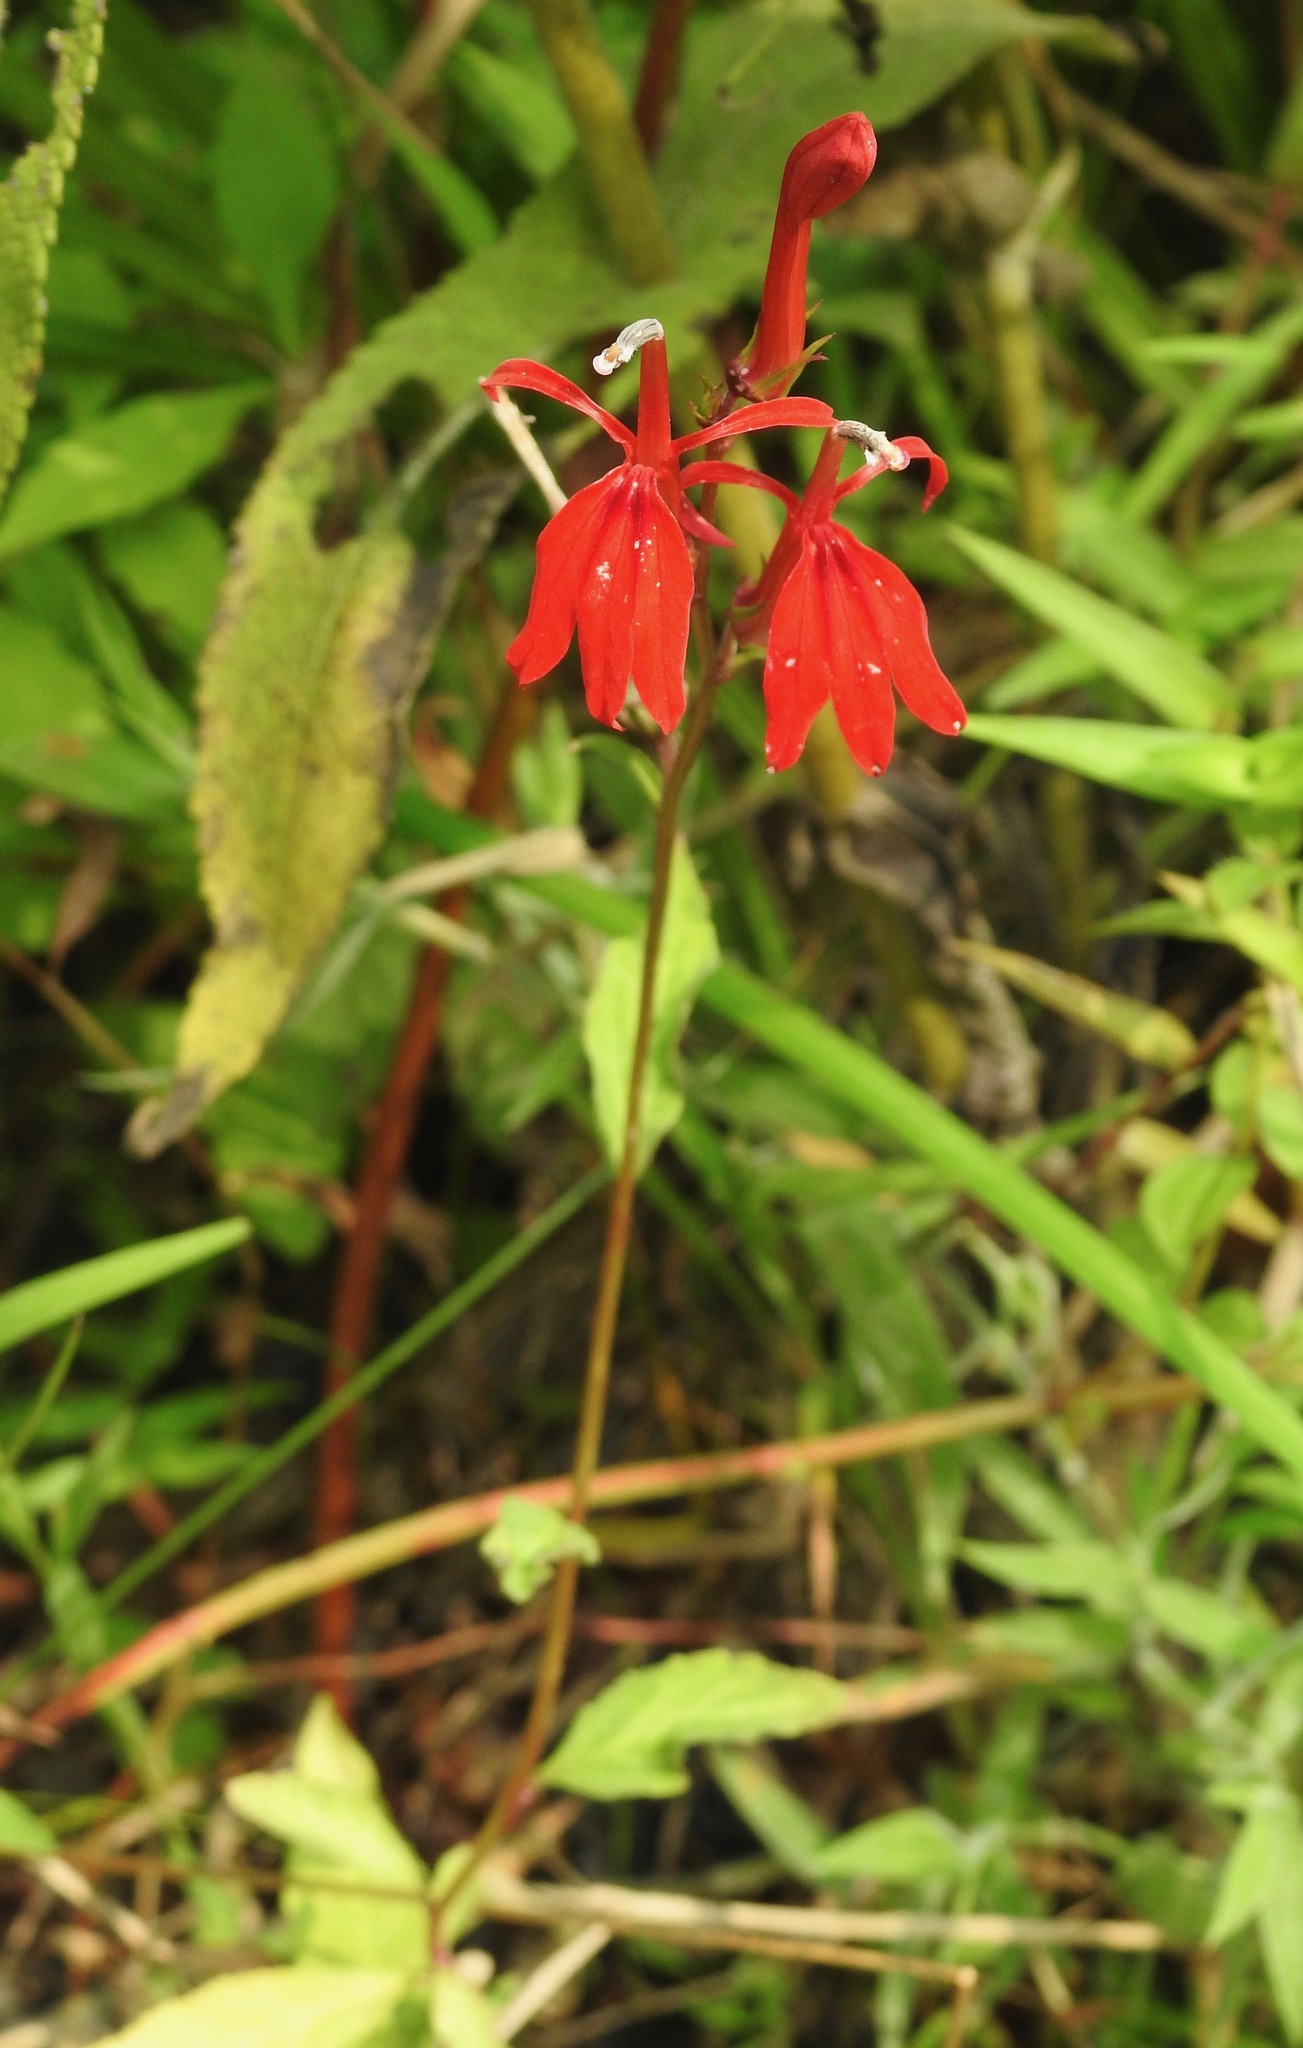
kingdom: Plantae
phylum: Tracheophyta
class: Magnoliopsida
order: Asterales
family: Campanulaceae
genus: Lobelia
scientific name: Lobelia cardinalis
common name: Cardinal flower
